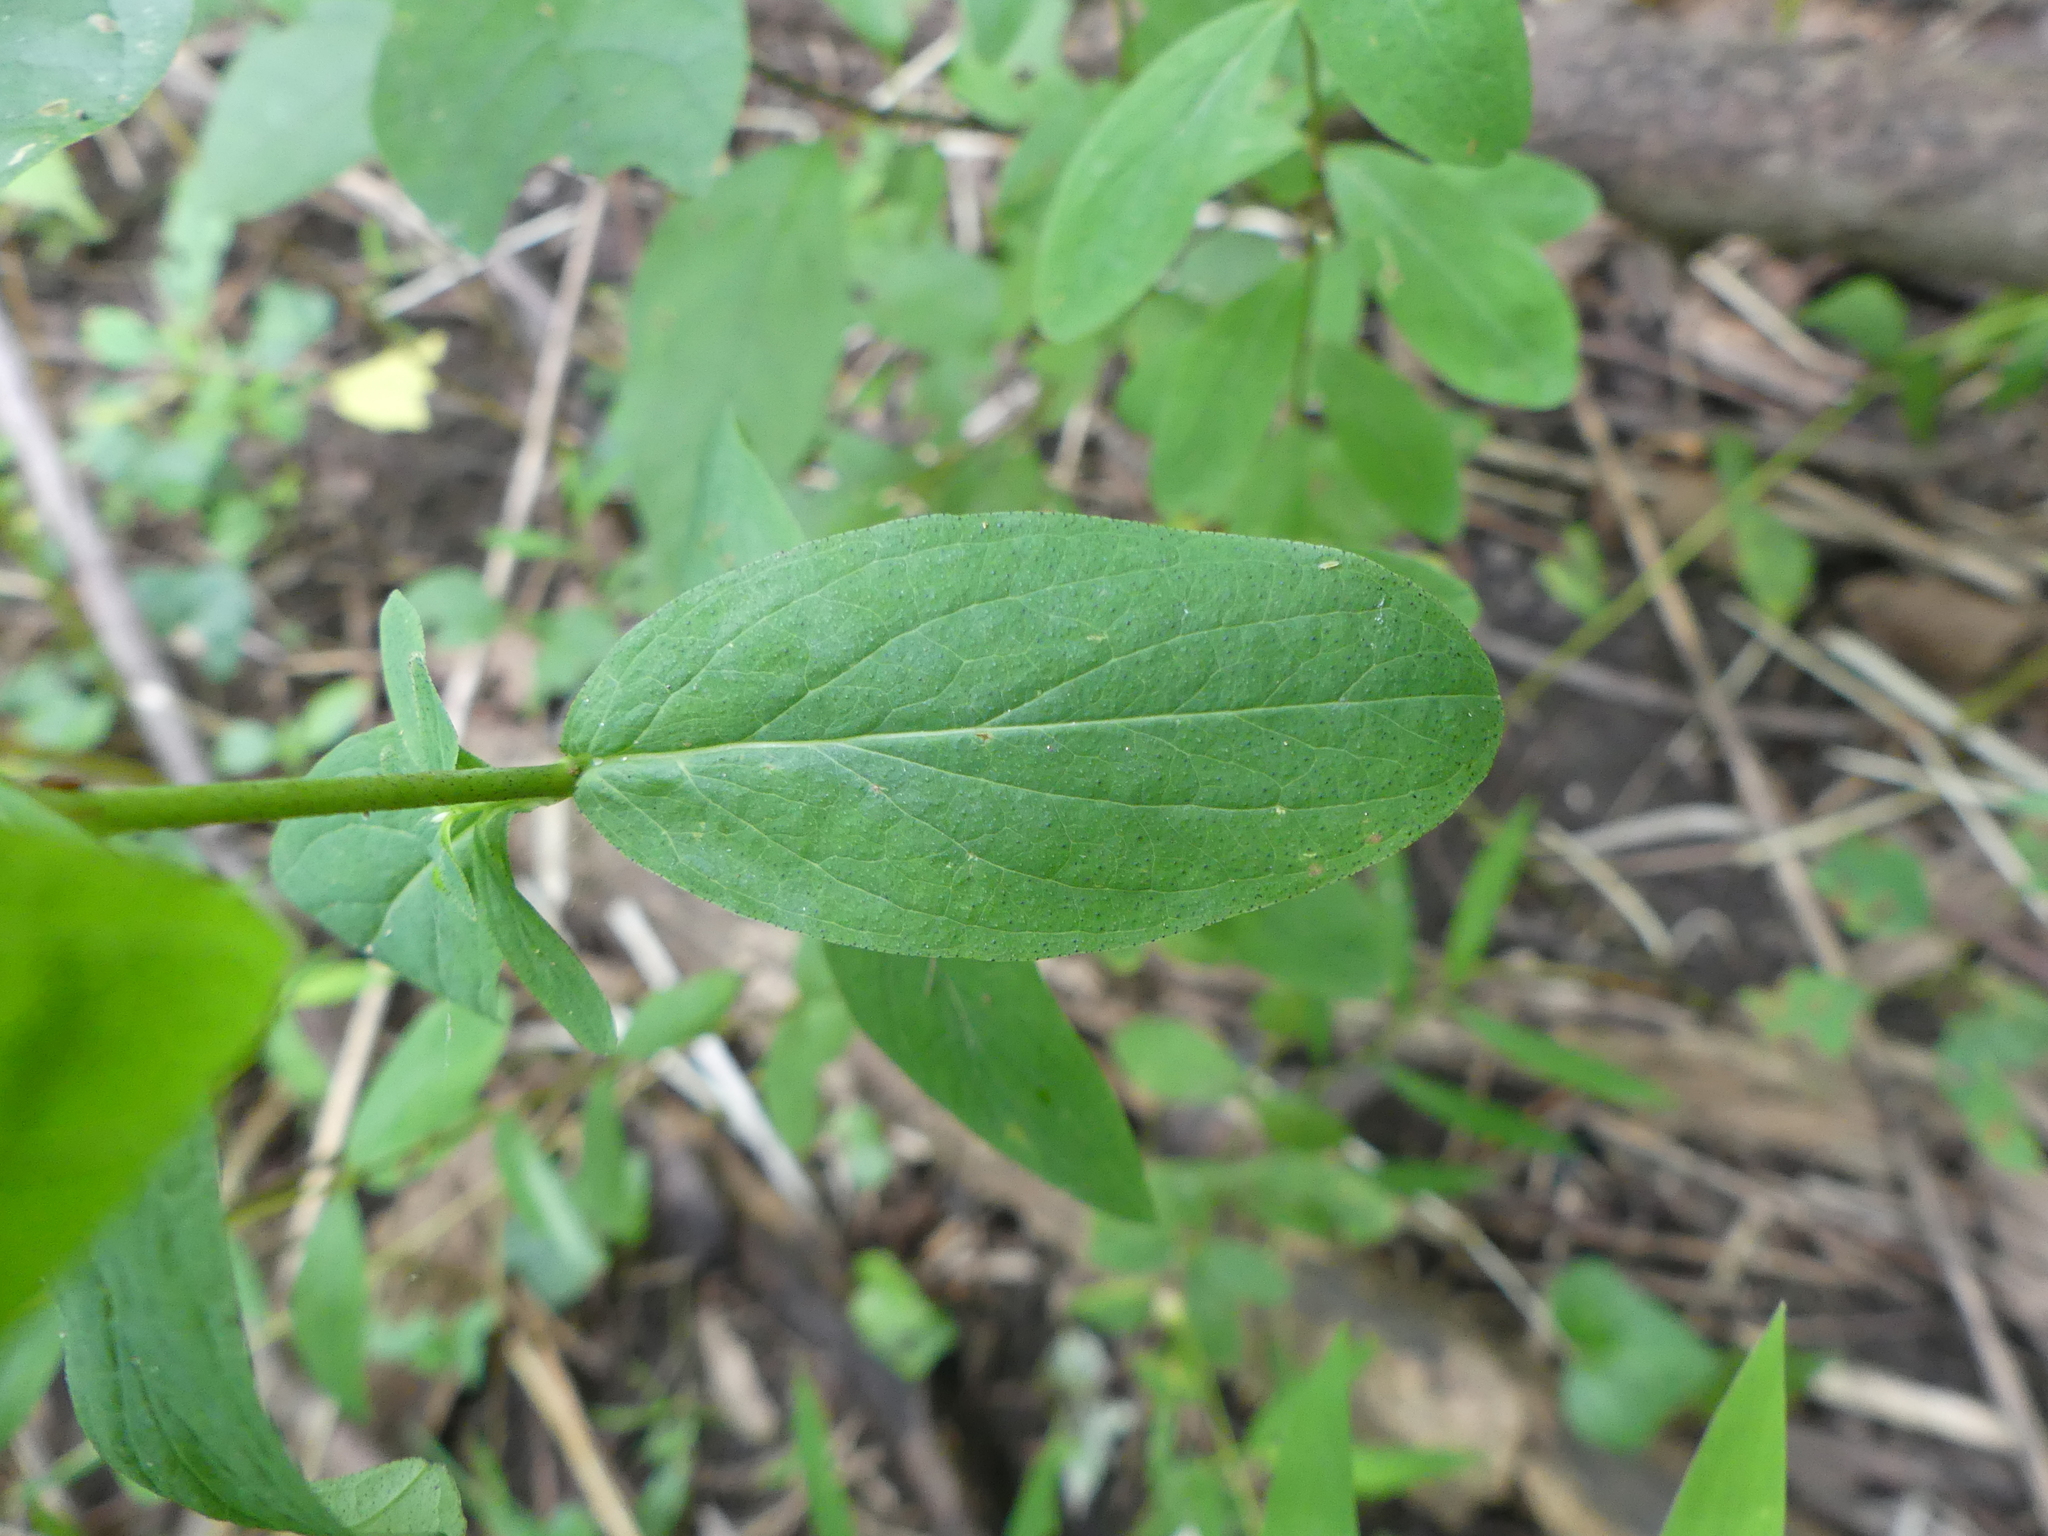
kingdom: Plantae
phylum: Tracheophyta
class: Magnoliopsida
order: Malpighiales
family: Hypericaceae
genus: Hypericum
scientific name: Hypericum punctatum
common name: Spotted st. john's-wort
